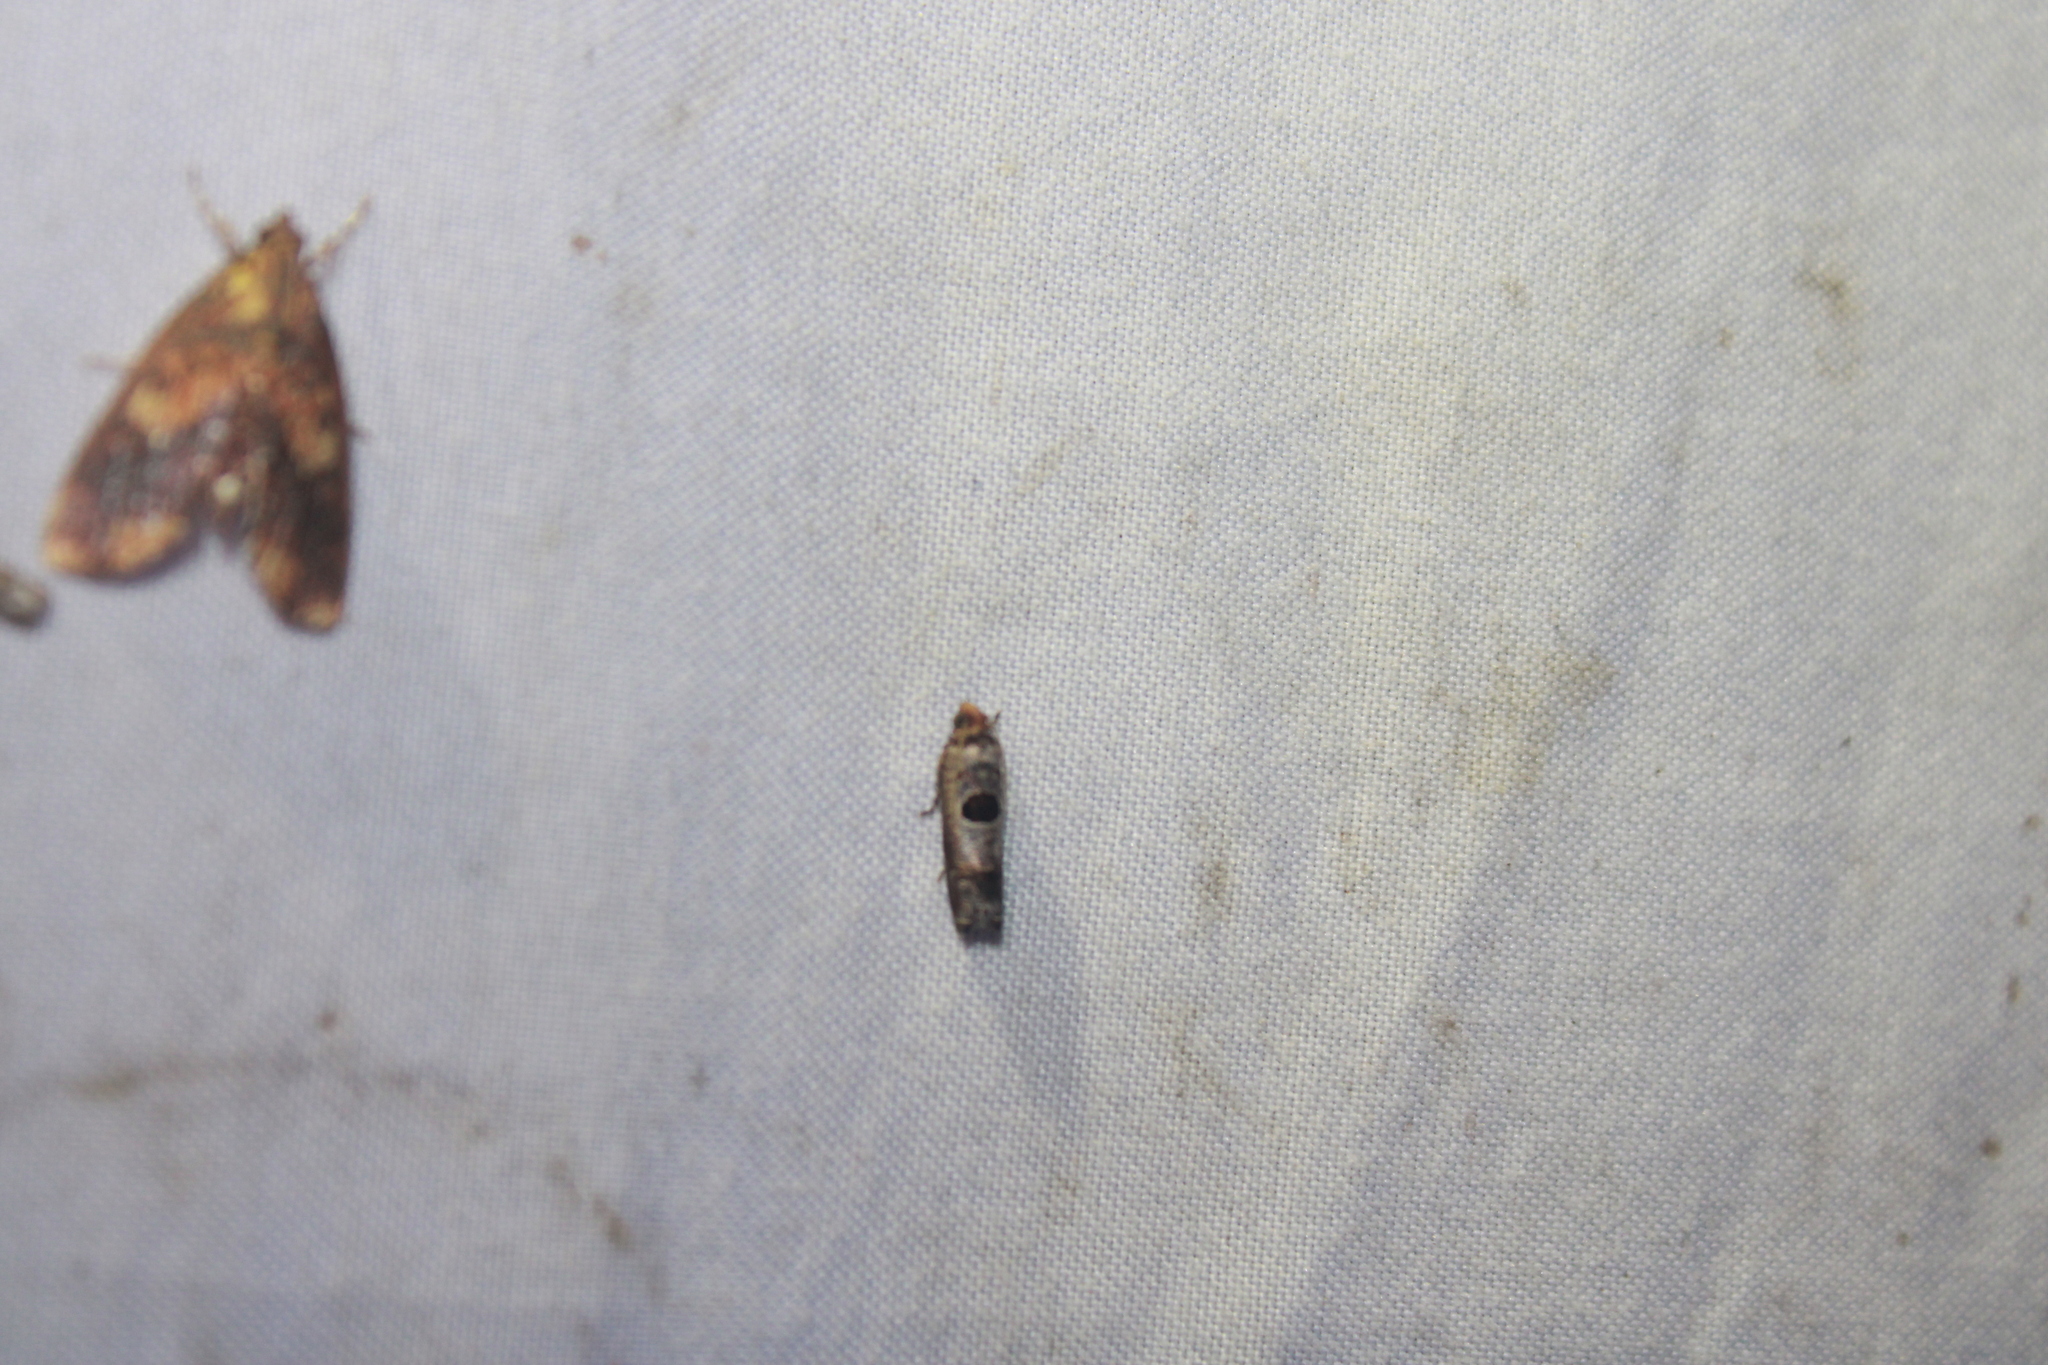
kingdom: Animalia
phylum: Arthropoda
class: Insecta
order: Lepidoptera
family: Tortricidae
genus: Episimus
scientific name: Episimus augmentana
